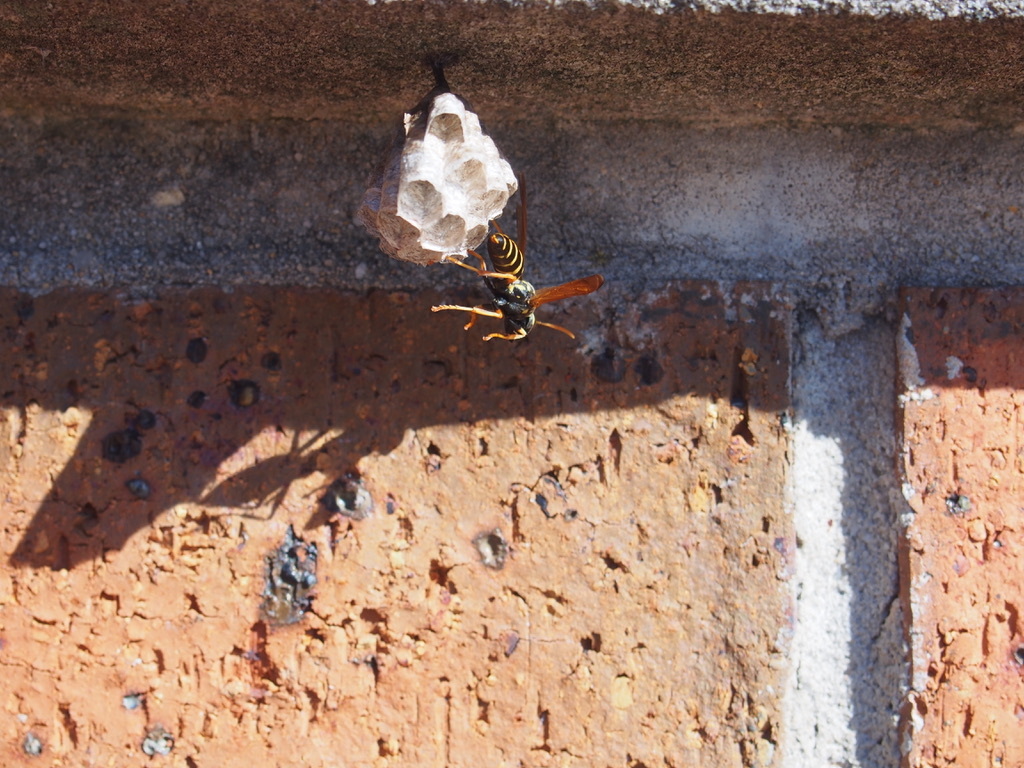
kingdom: Animalia
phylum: Arthropoda
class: Insecta
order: Hymenoptera
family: Eumenidae
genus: Polistes
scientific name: Polistes chinensis
